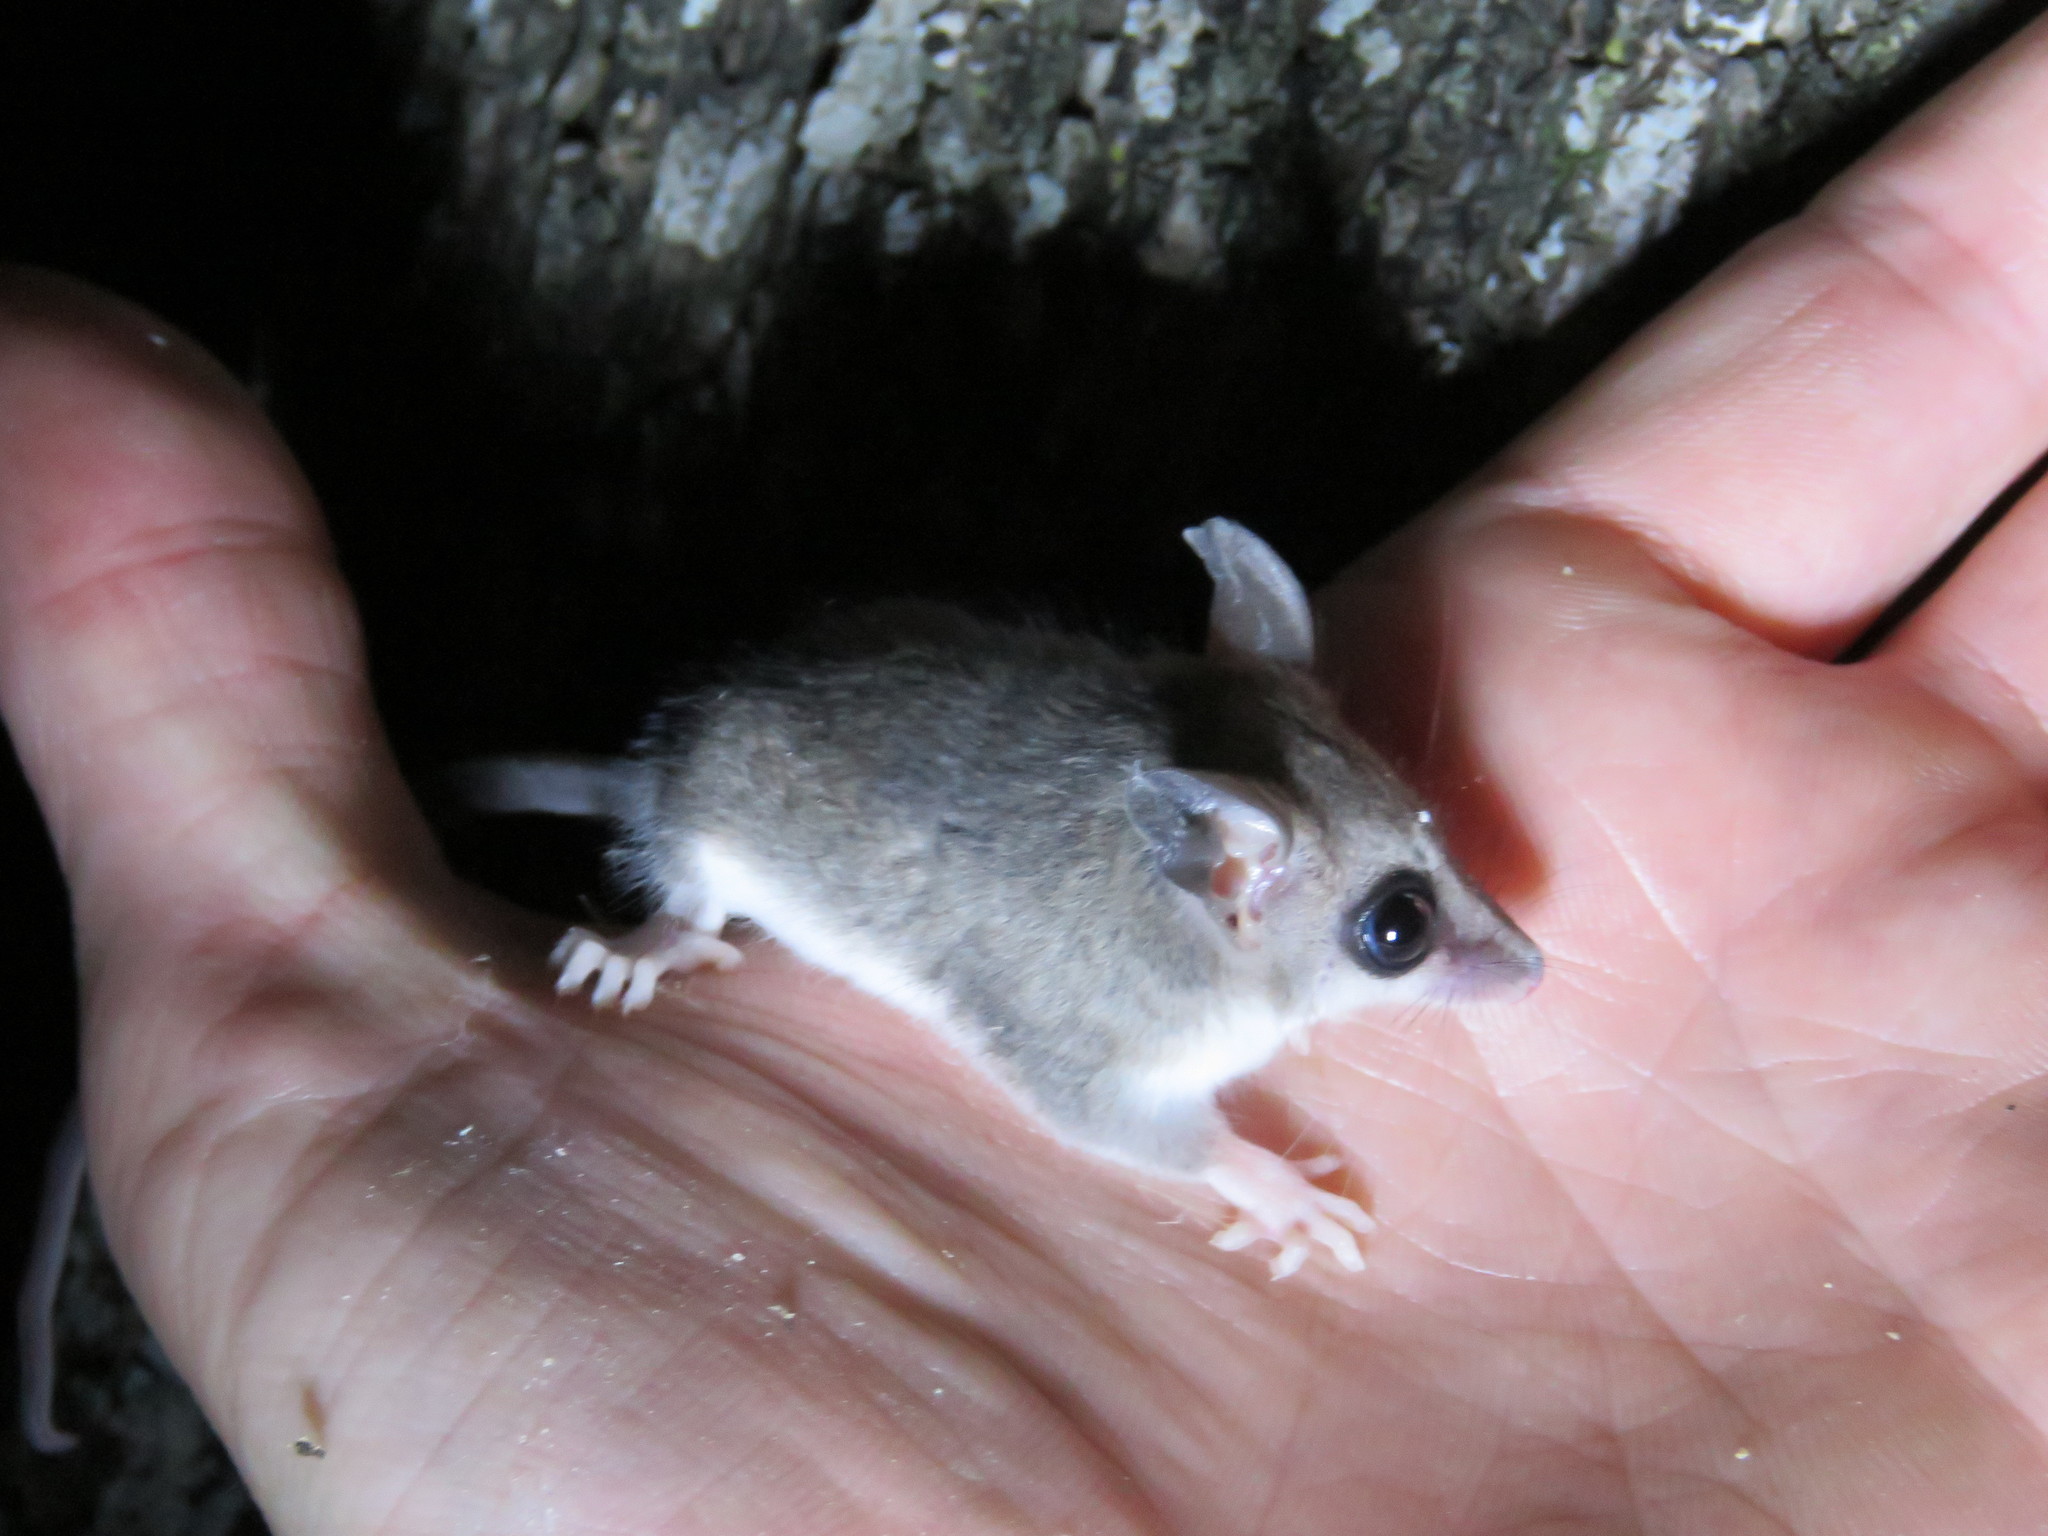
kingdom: Animalia
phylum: Chordata
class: Mammalia
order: Didelphimorphia
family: Didelphidae
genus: Thylamys
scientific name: Thylamys pusillus
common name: Common fat-tailed mouse opossum
